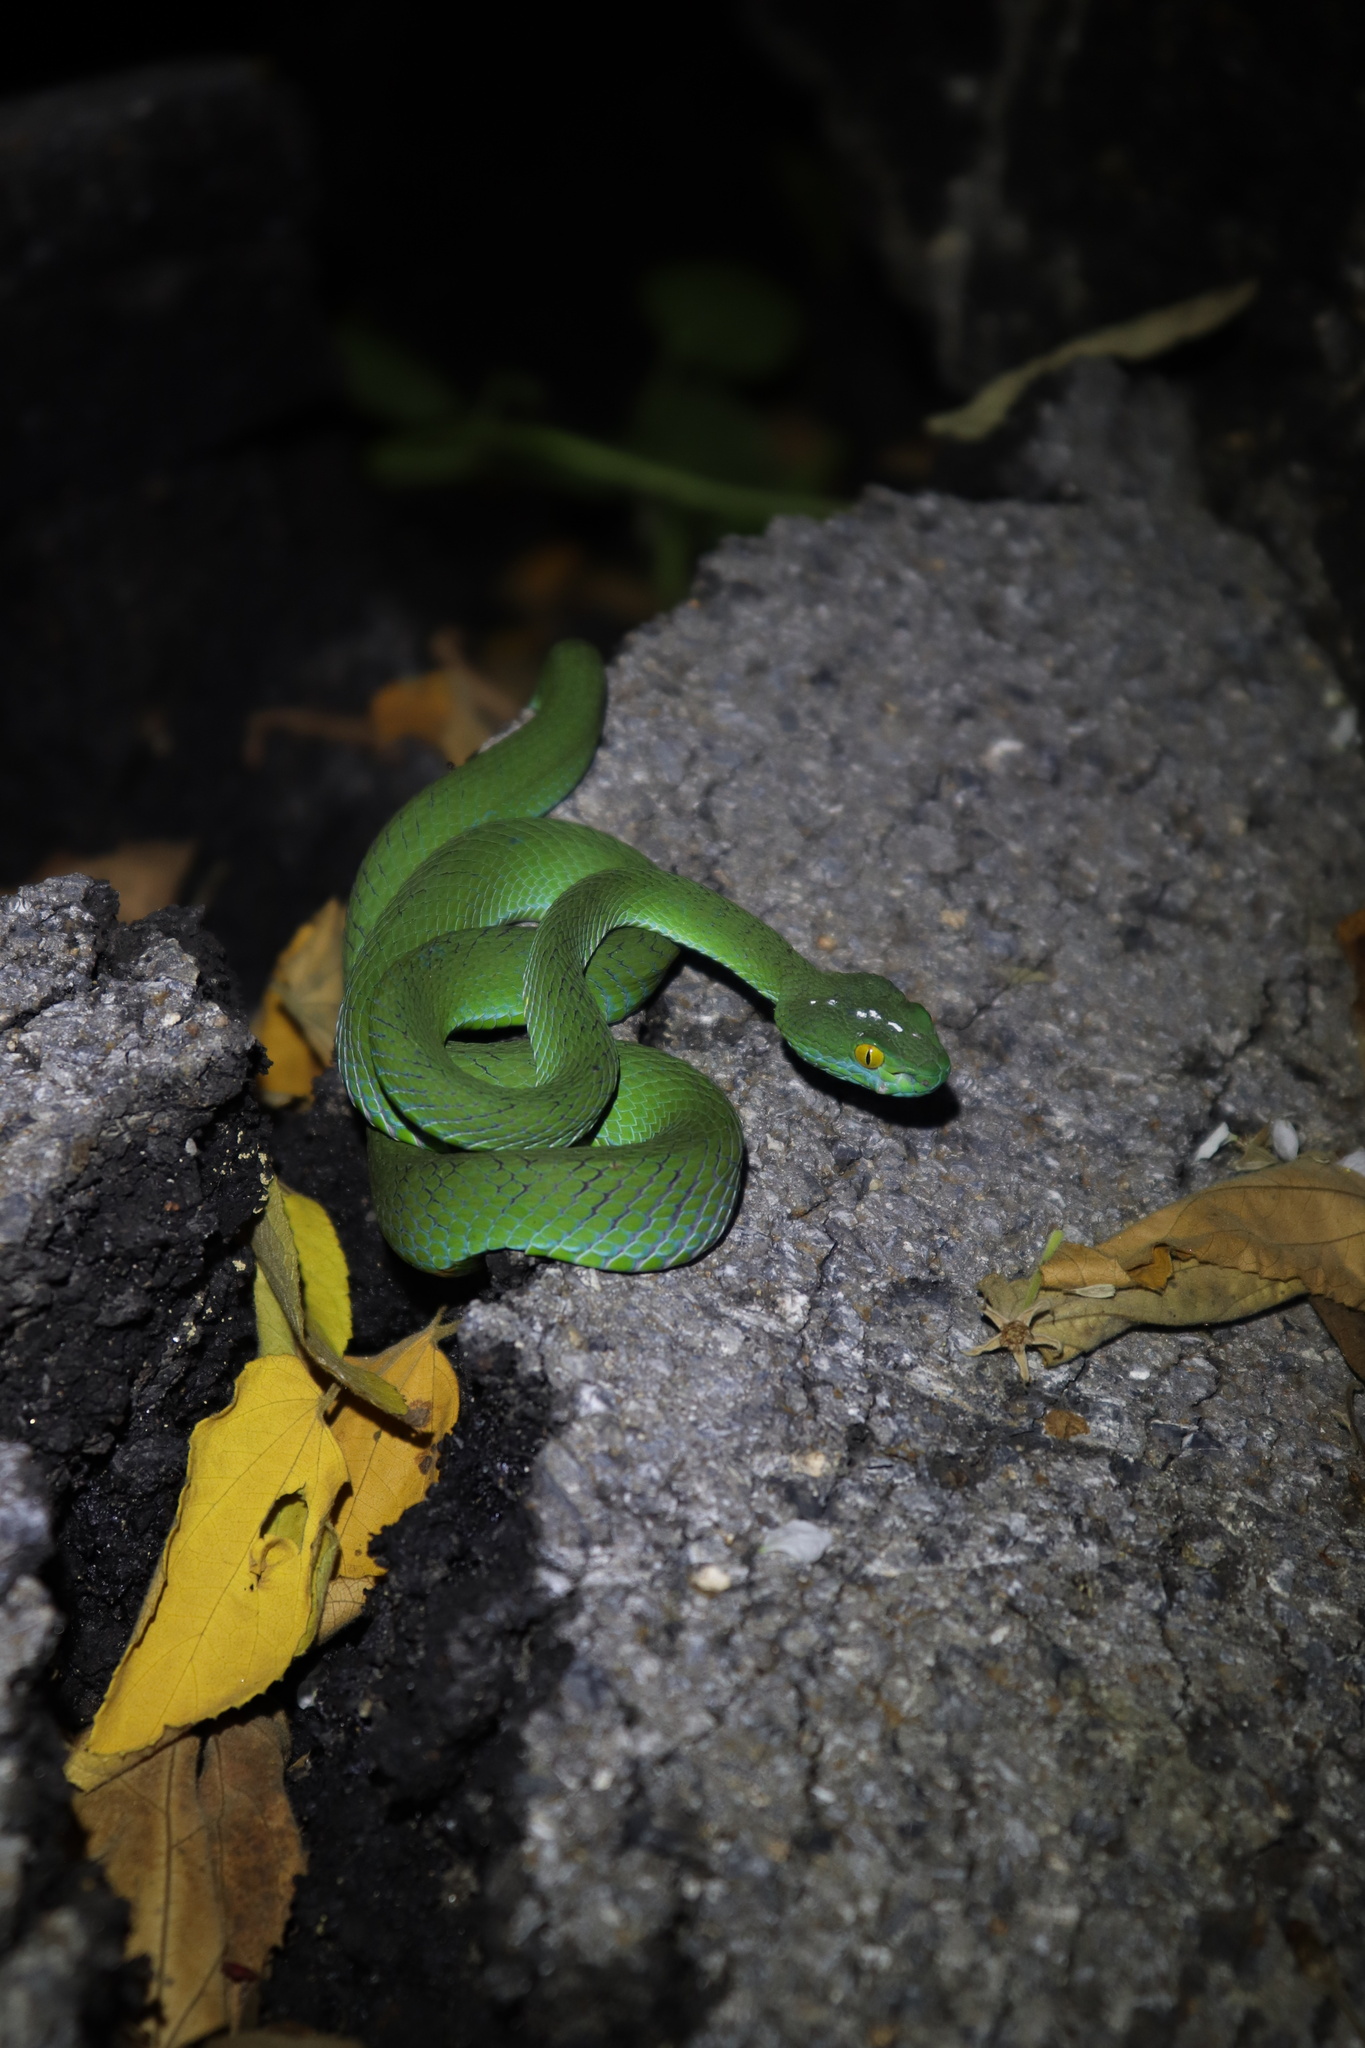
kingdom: Animalia
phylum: Chordata
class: Squamata
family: Viperidae
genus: Trimeresurus
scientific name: Trimeresurus macrops
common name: Kramer's pit viper
